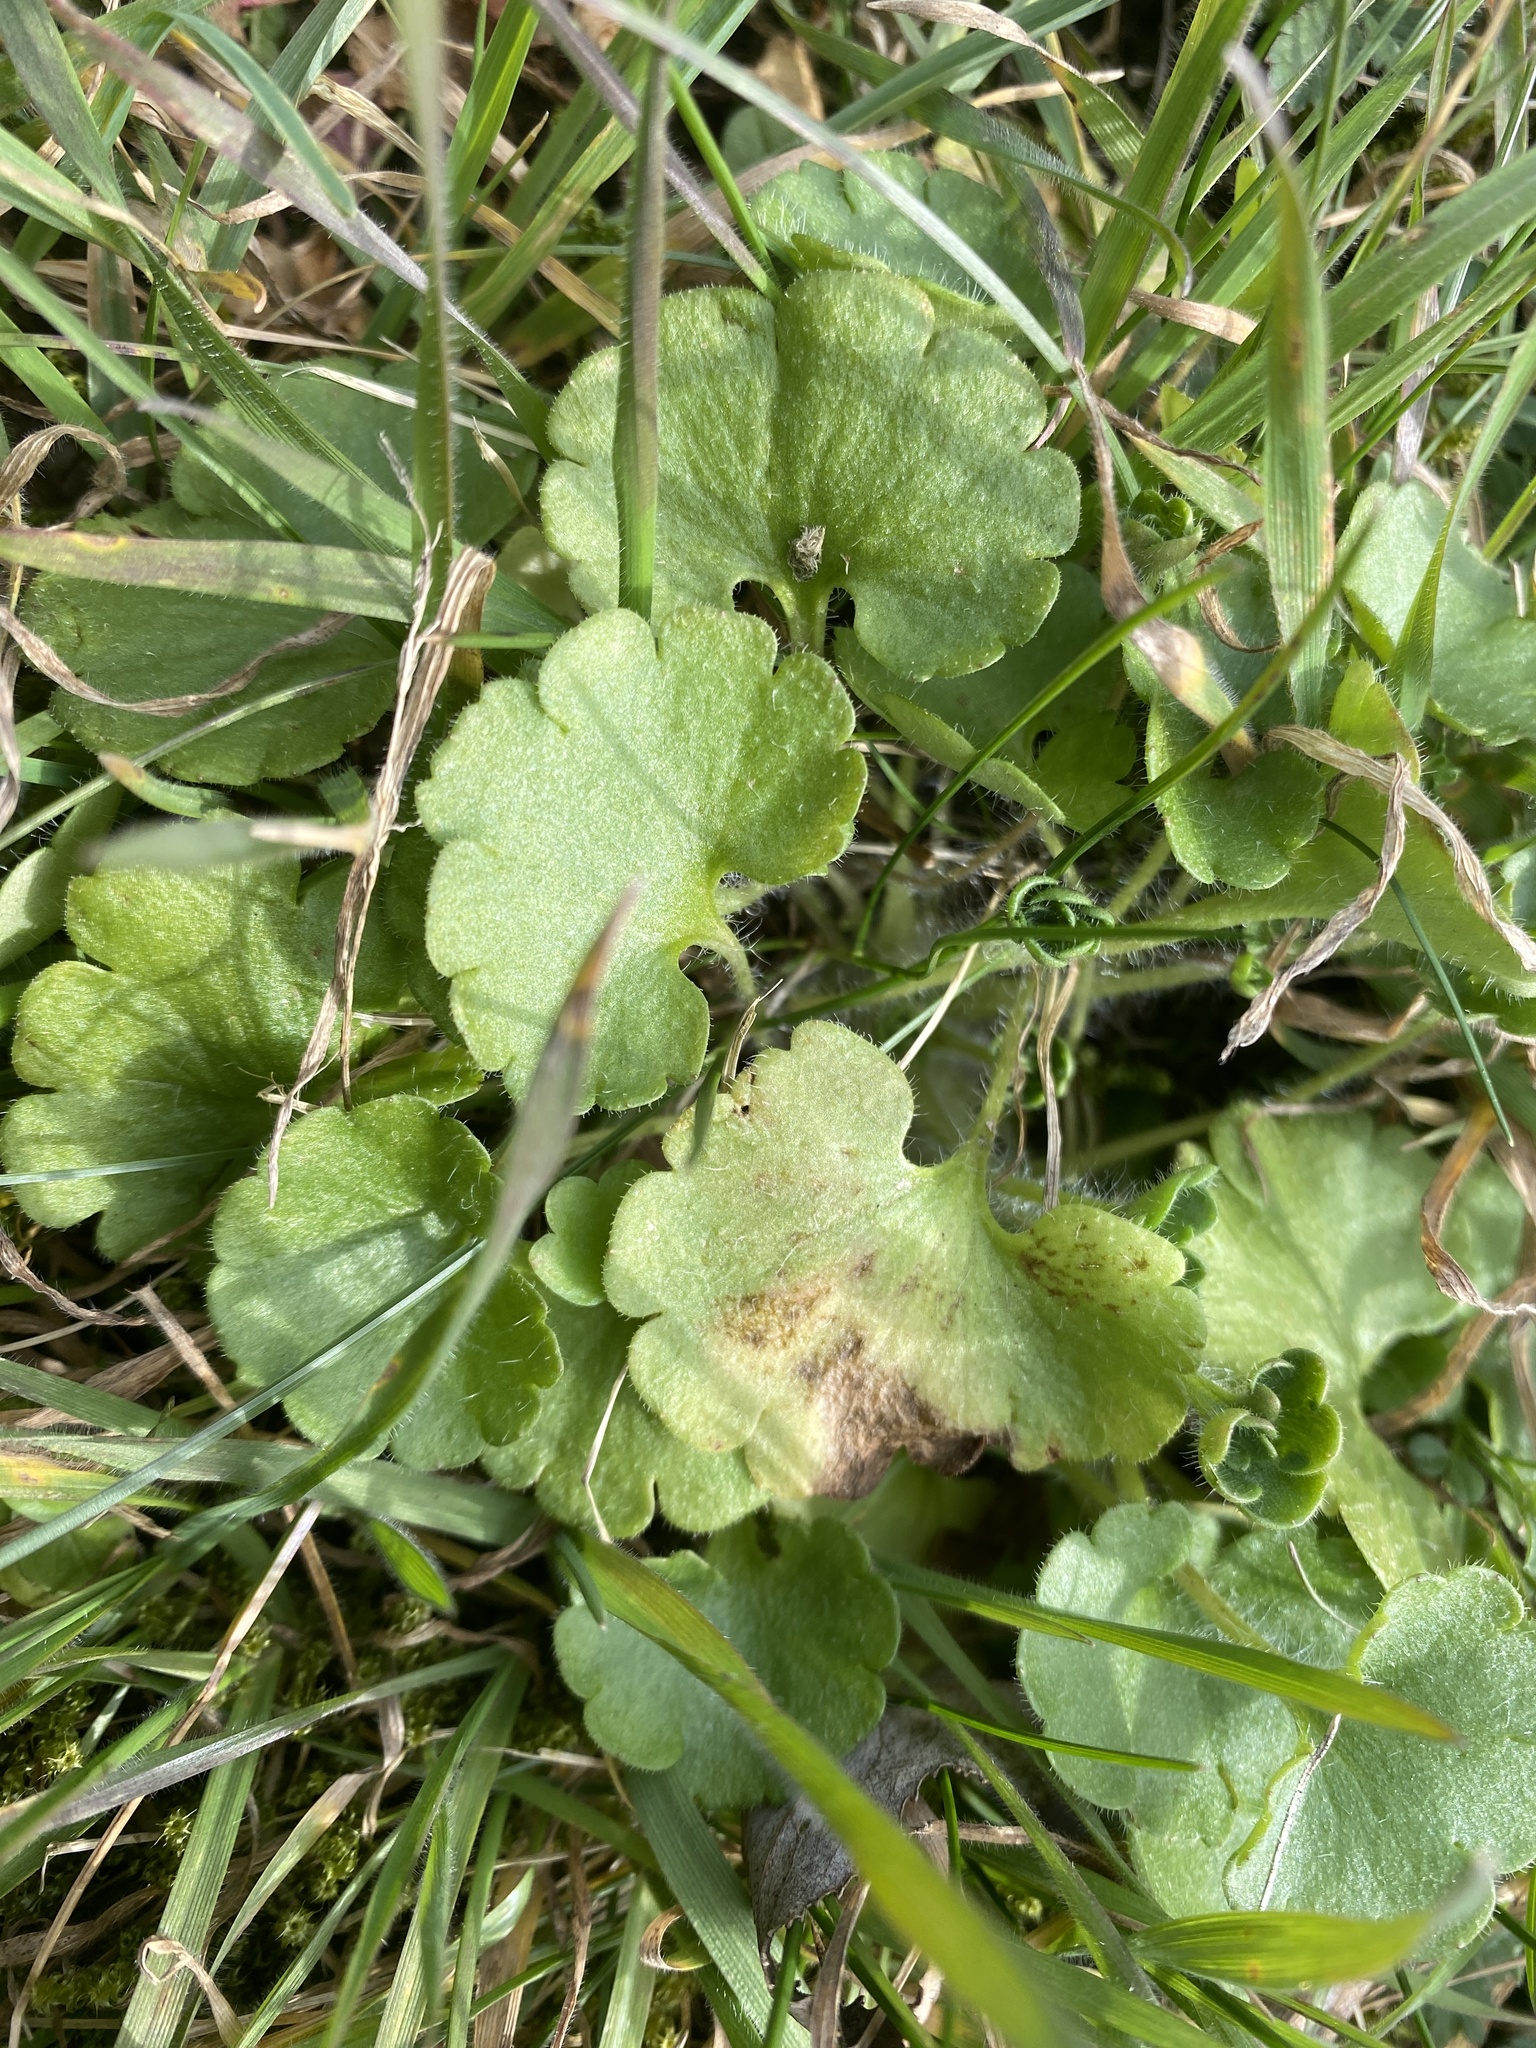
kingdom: Plantae
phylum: Tracheophyta
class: Magnoliopsida
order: Saxifragales
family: Saxifragaceae
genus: Saxifraga
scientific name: Saxifraga granulata
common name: Meadow saxifrage
